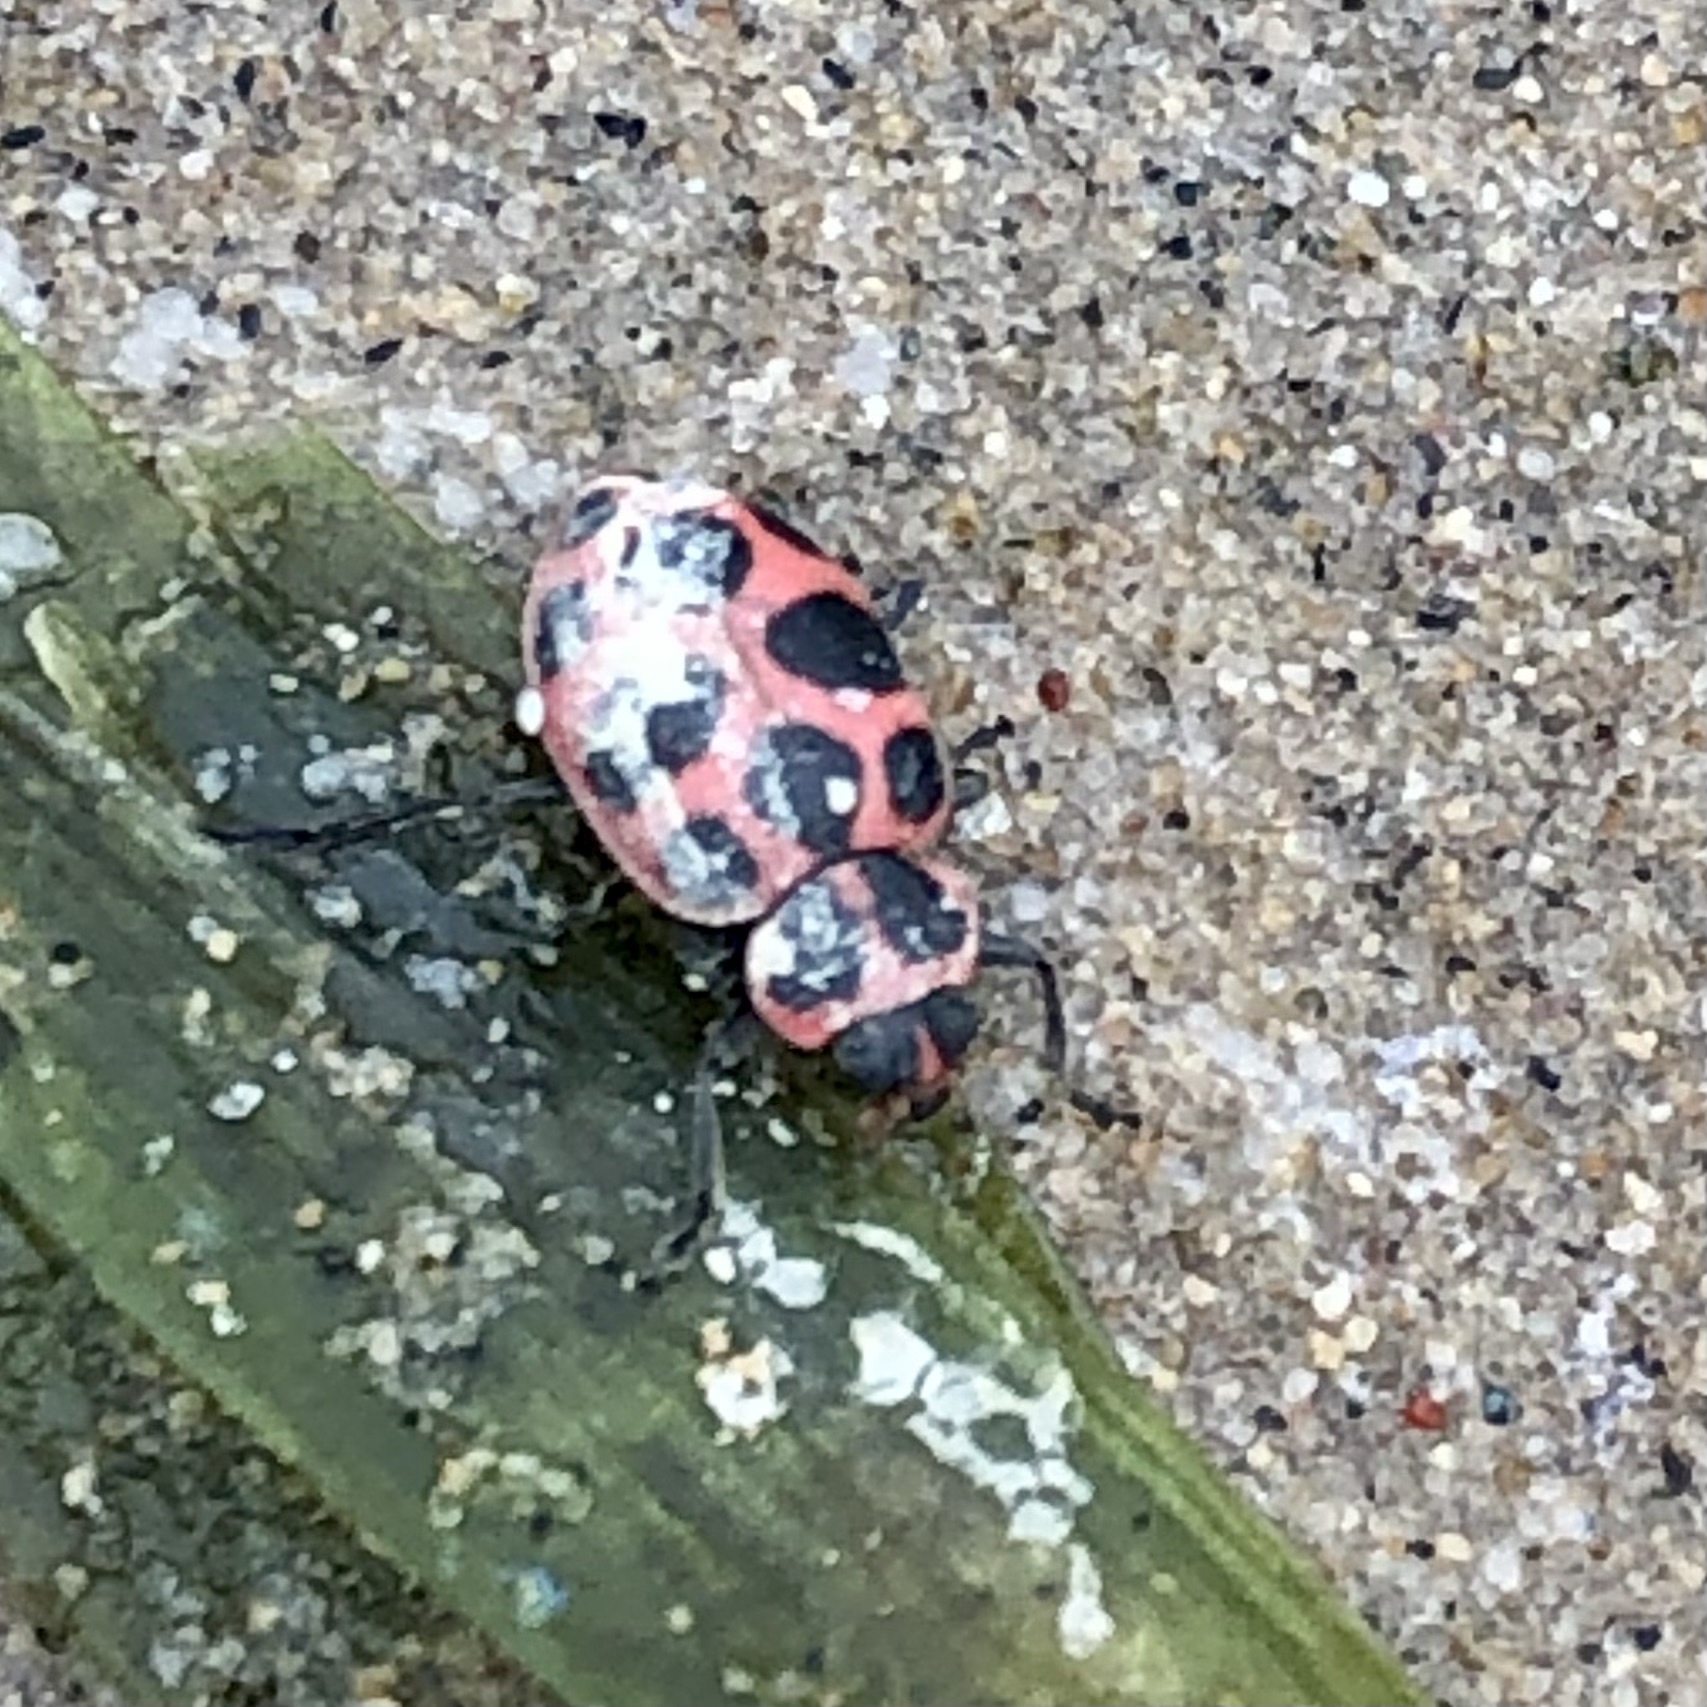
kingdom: Animalia
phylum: Arthropoda
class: Insecta
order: Coleoptera
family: Coccinellidae
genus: Coleomegilla
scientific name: Coleomegilla maculata
